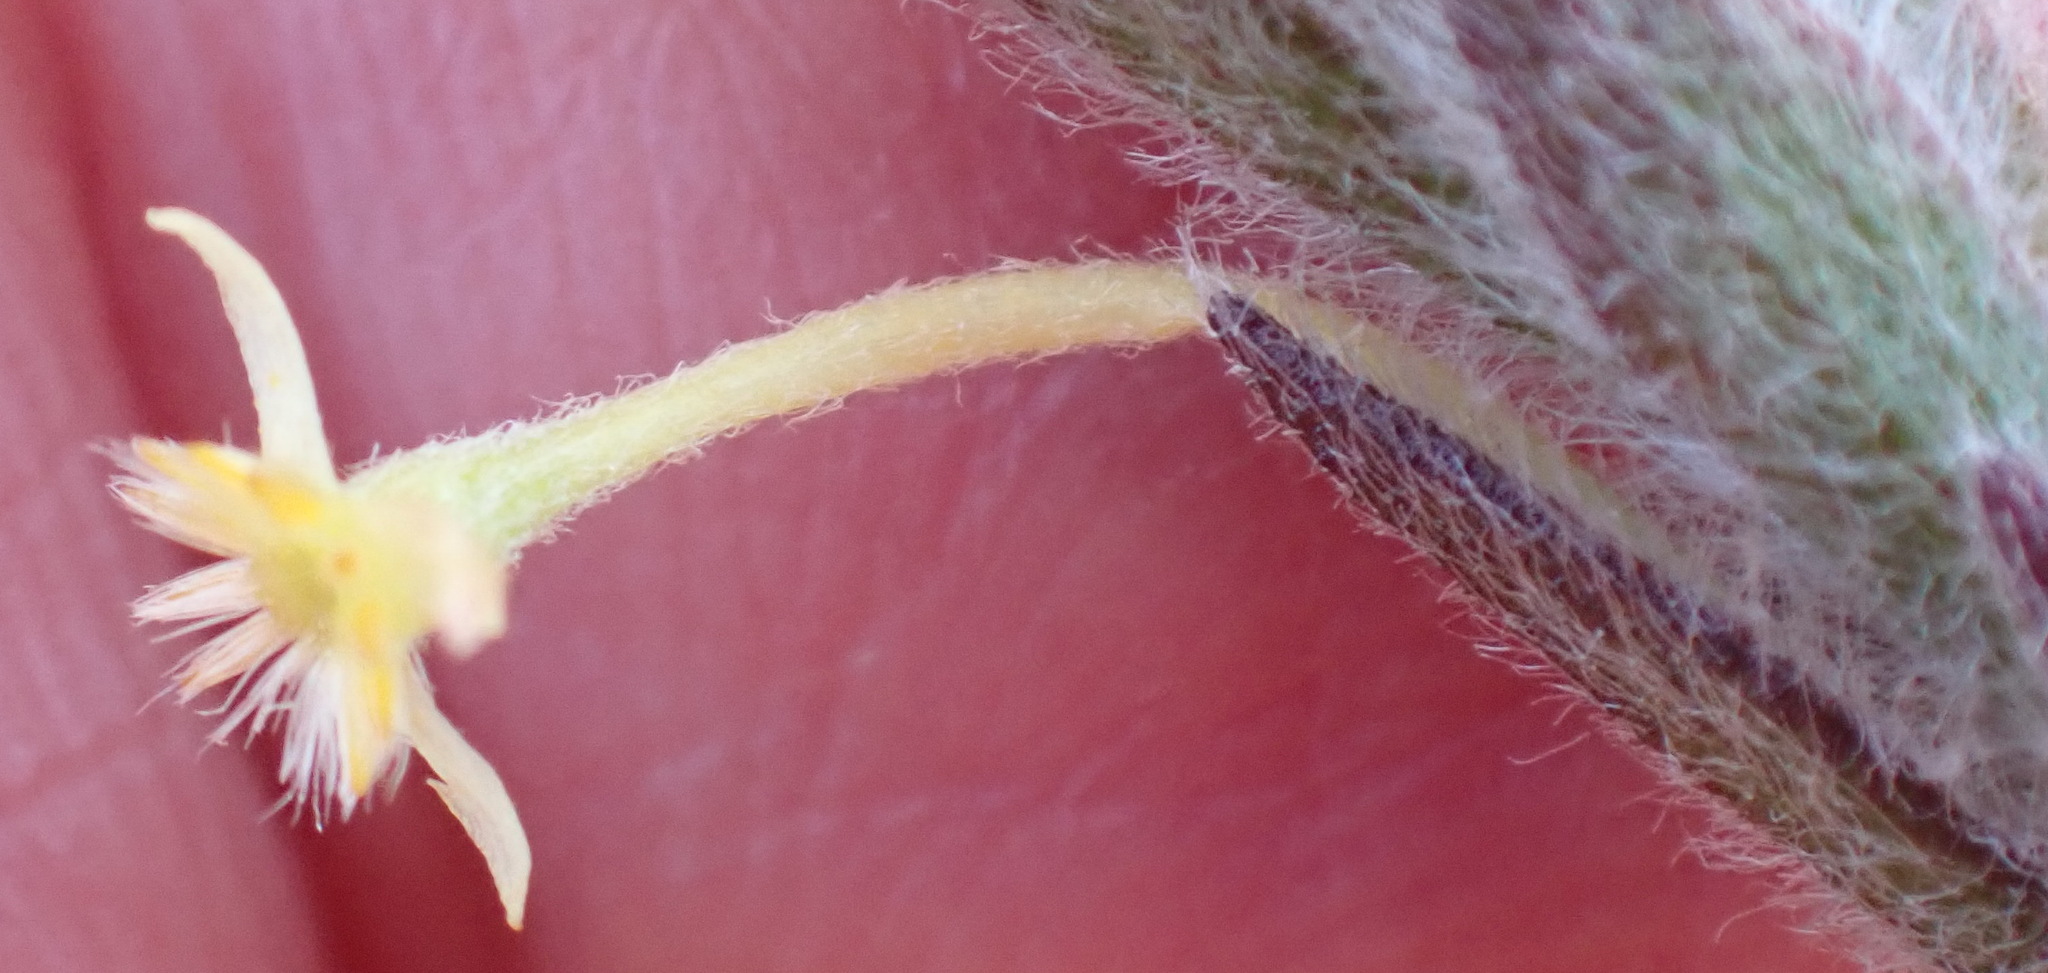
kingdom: Plantae
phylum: Tracheophyta
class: Magnoliopsida
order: Malvales
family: Thymelaeaceae
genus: Struthiola
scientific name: Struthiola tomentosa
